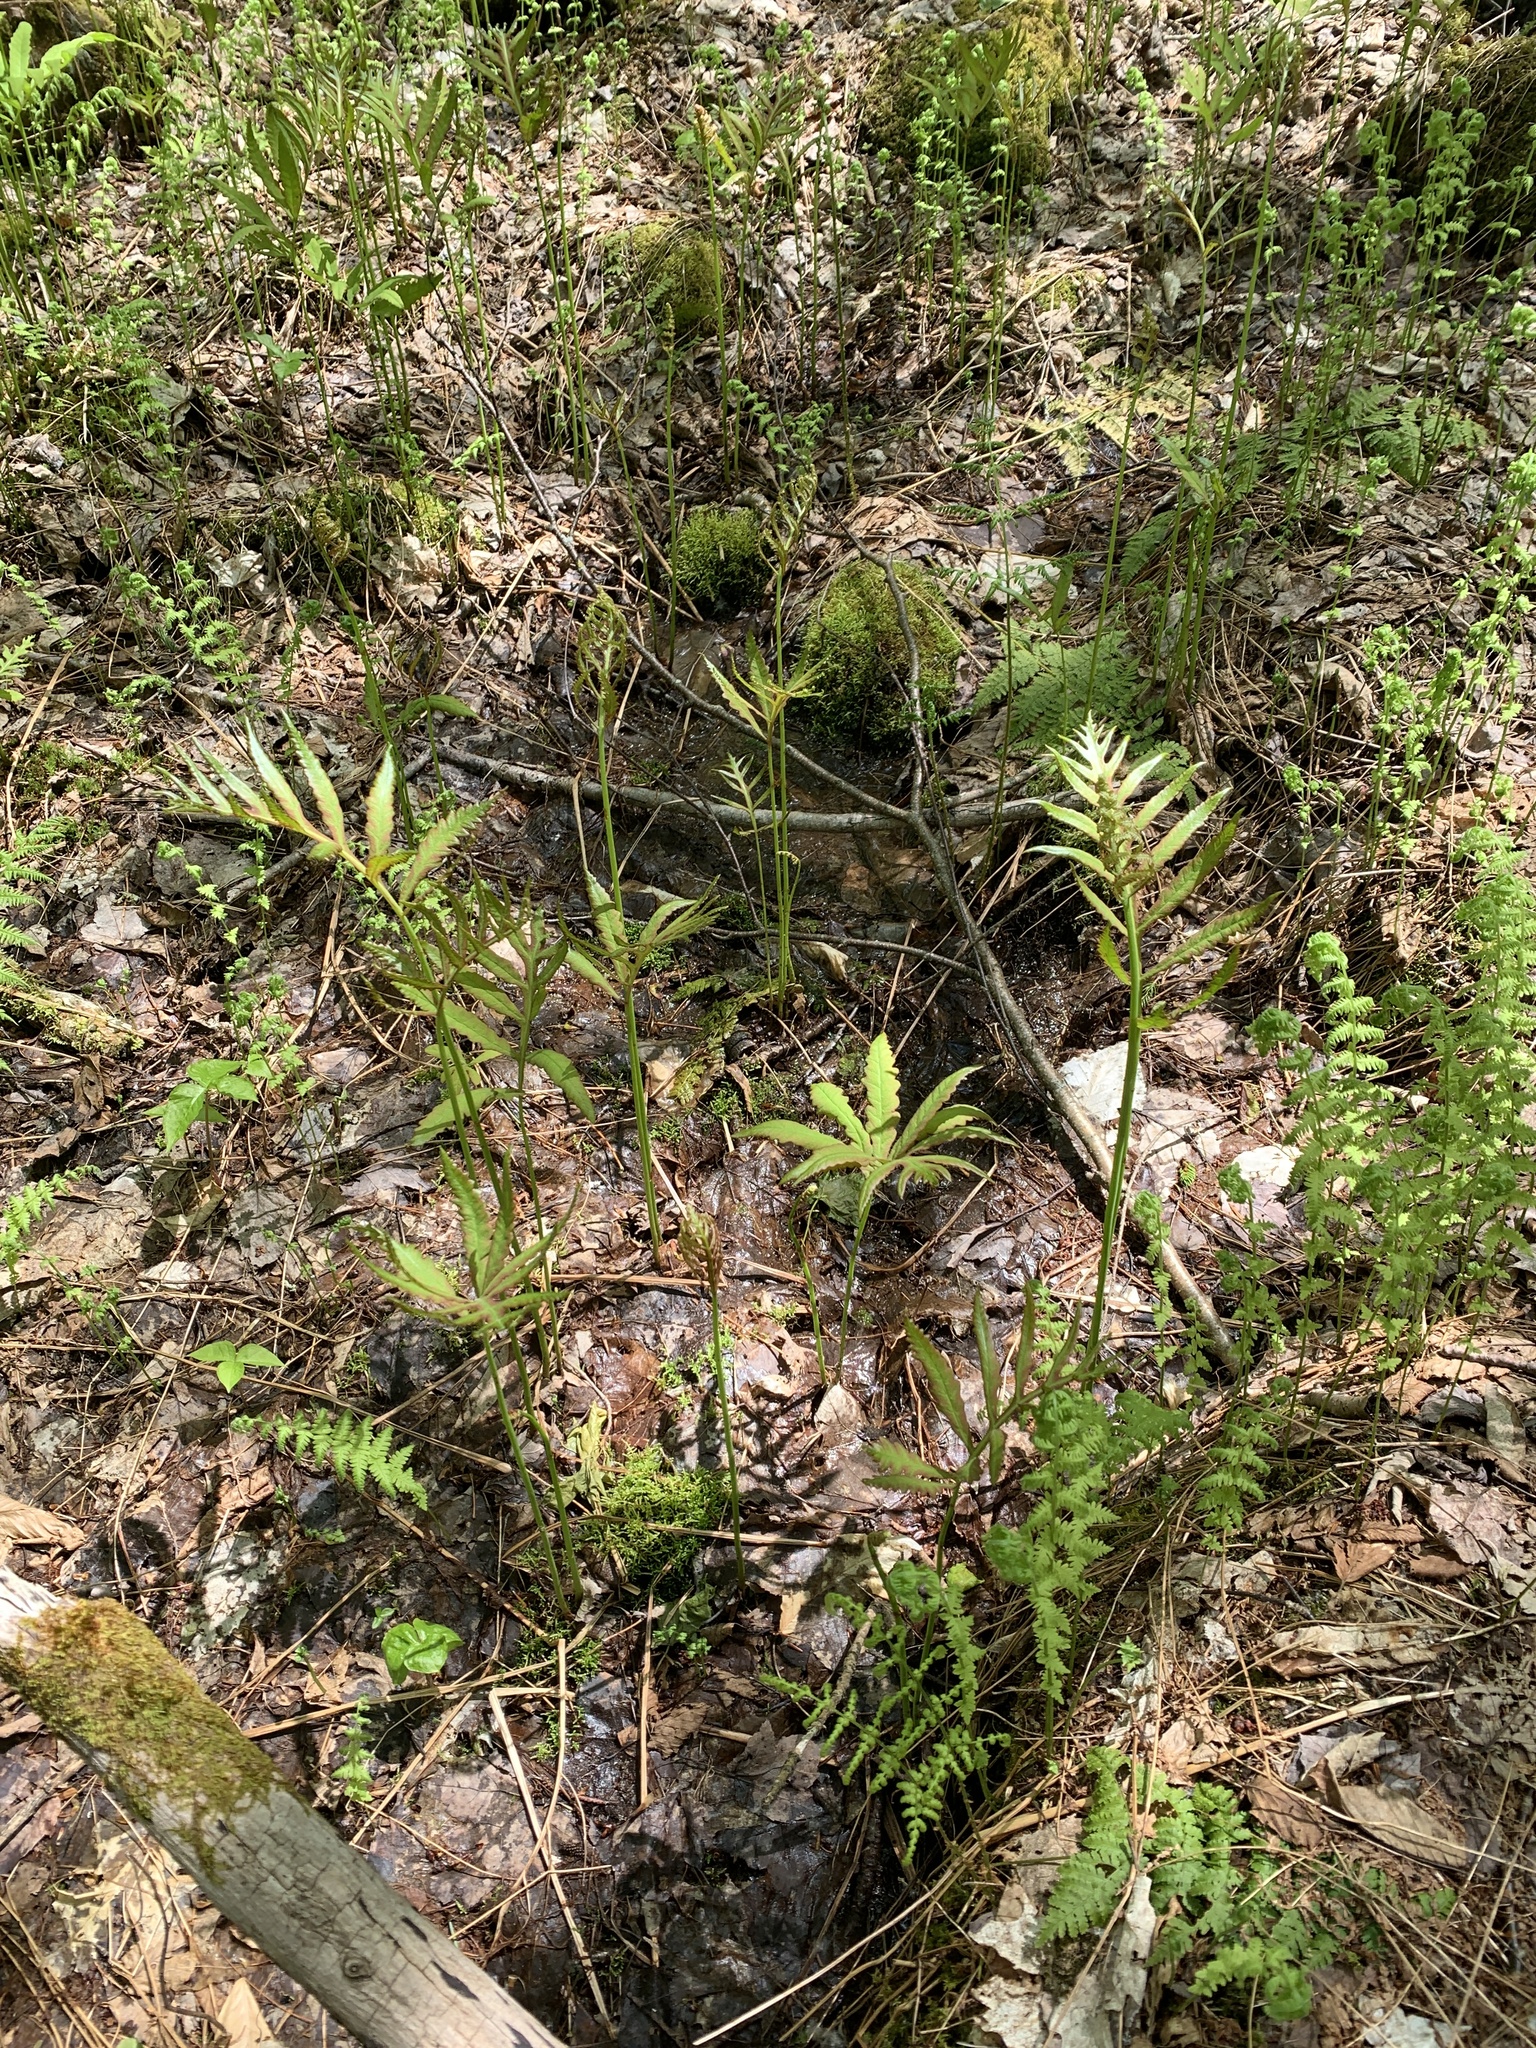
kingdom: Plantae
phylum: Tracheophyta
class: Polypodiopsida
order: Polypodiales
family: Onocleaceae
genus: Onoclea
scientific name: Onoclea sensibilis
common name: Sensitive fern
